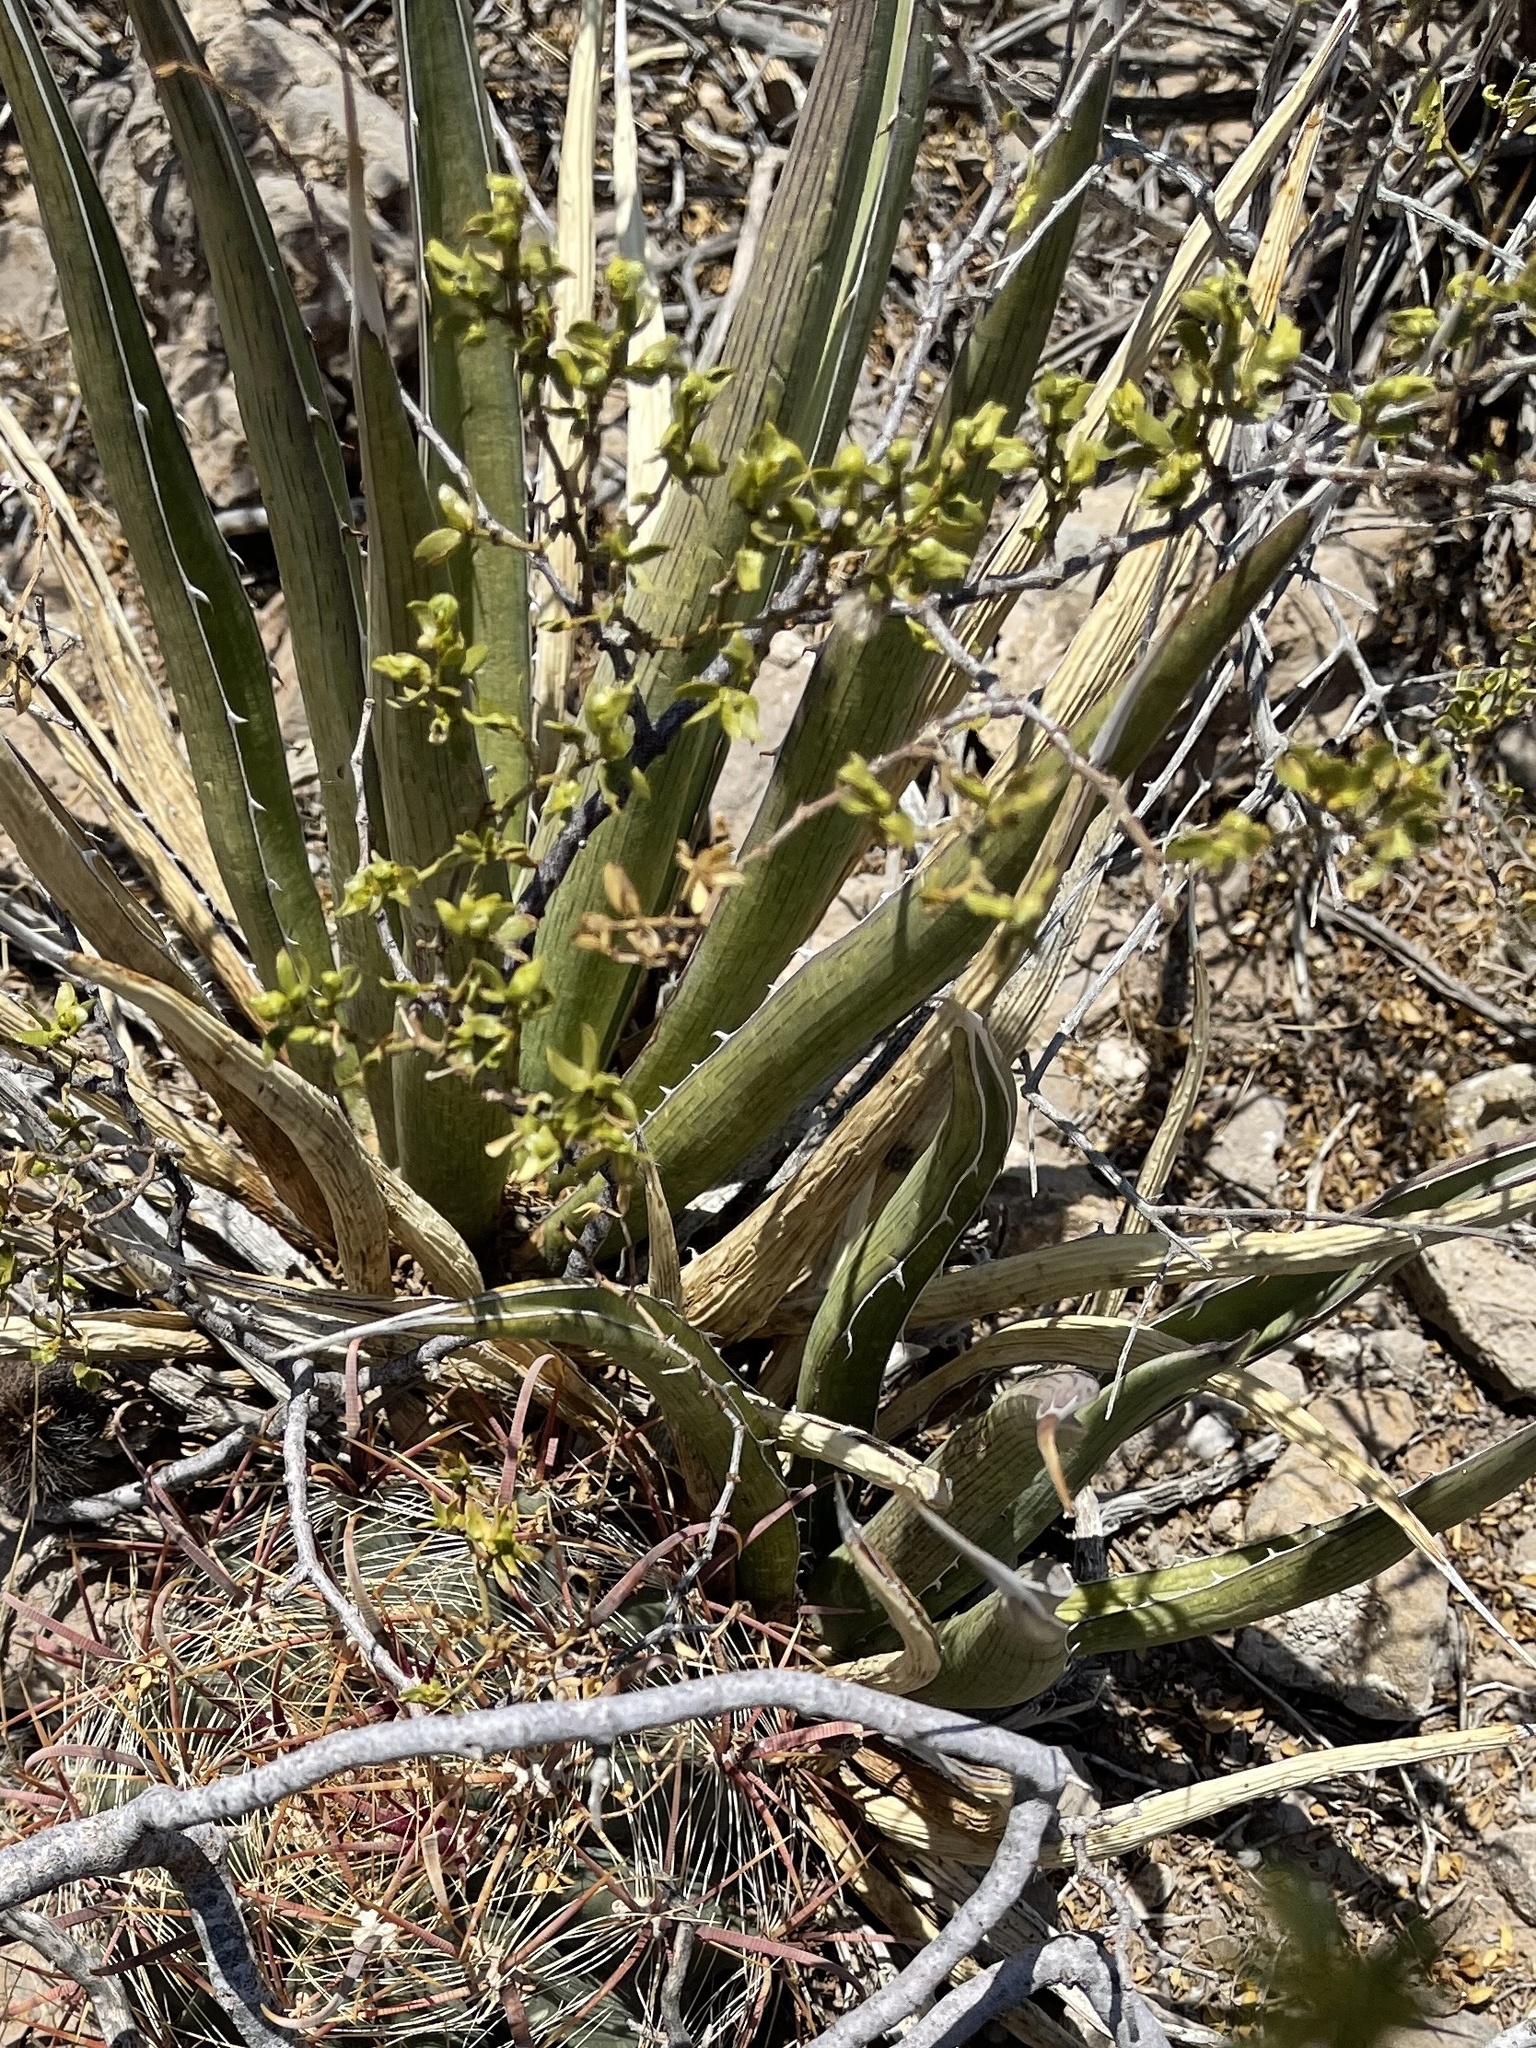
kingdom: Plantae
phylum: Tracheophyta
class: Magnoliopsida
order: Zygophyllales
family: Zygophyllaceae
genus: Larrea
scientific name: Larrea tridentata
